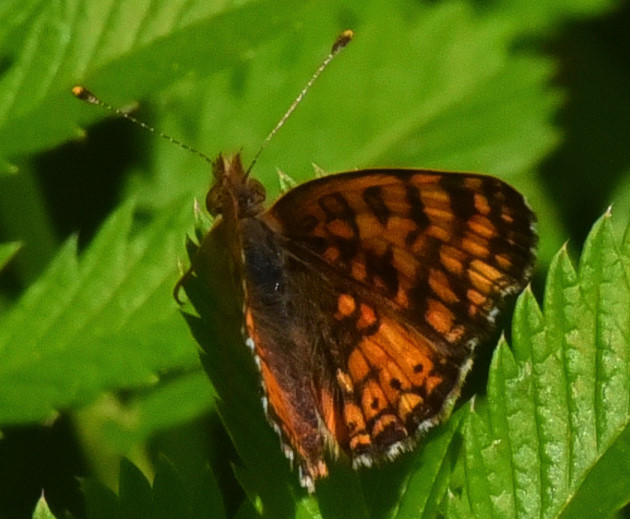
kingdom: Animalia
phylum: Arthropoda
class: Insecta
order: Lepidoptera
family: Nymphalidae
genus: Eresia
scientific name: Eresia aveyrona
